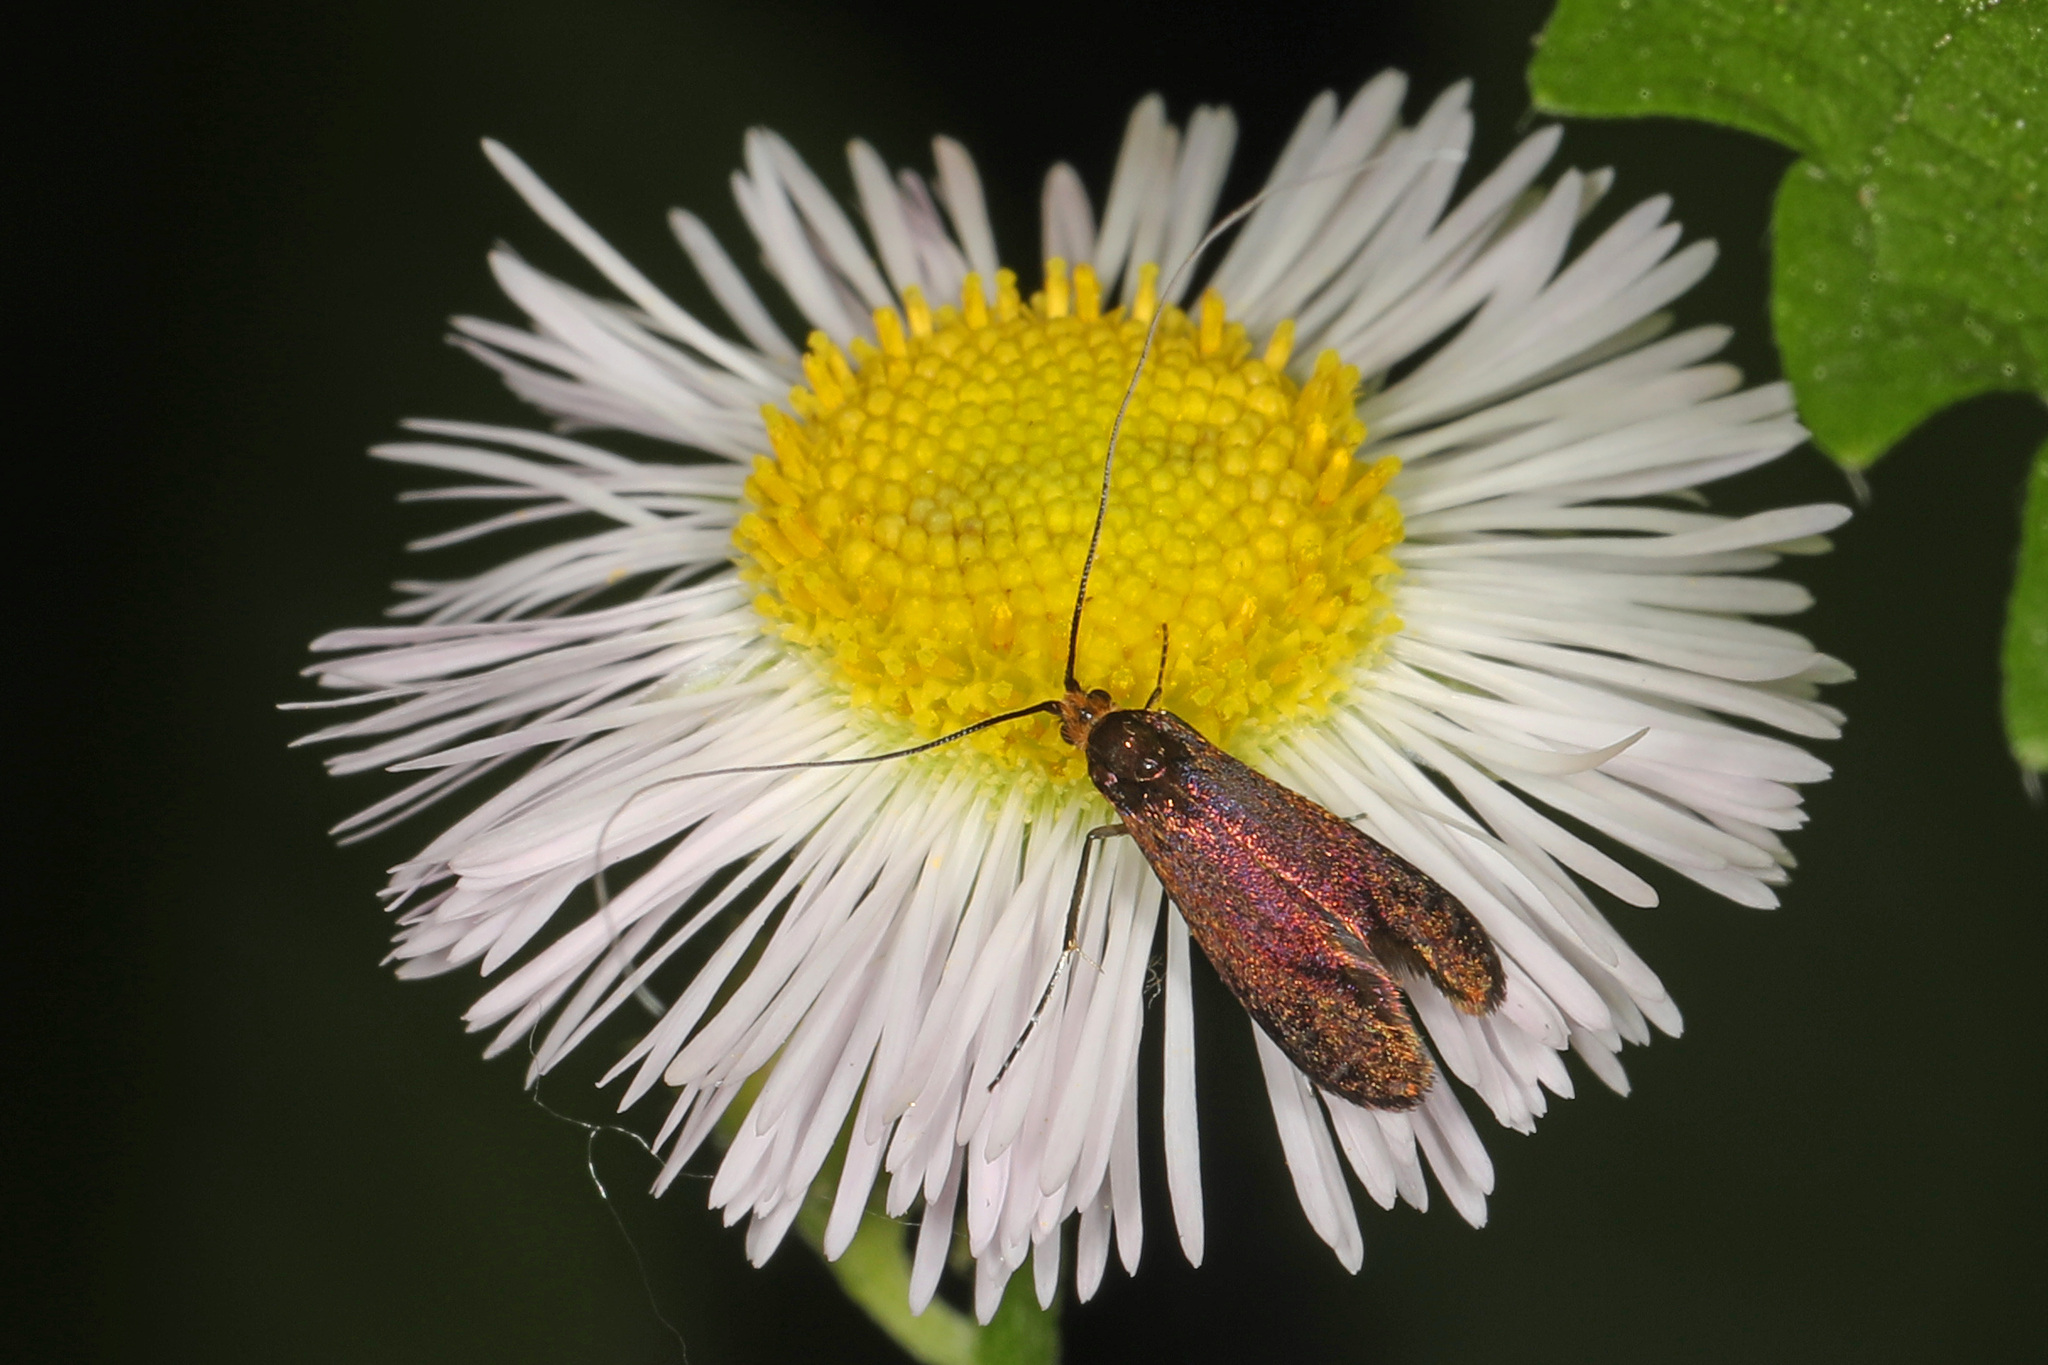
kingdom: Animalia
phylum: Arthropoda
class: Insecta
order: Lepidoptera
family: Adelidae
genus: Adela
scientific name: Adela caeruleella
